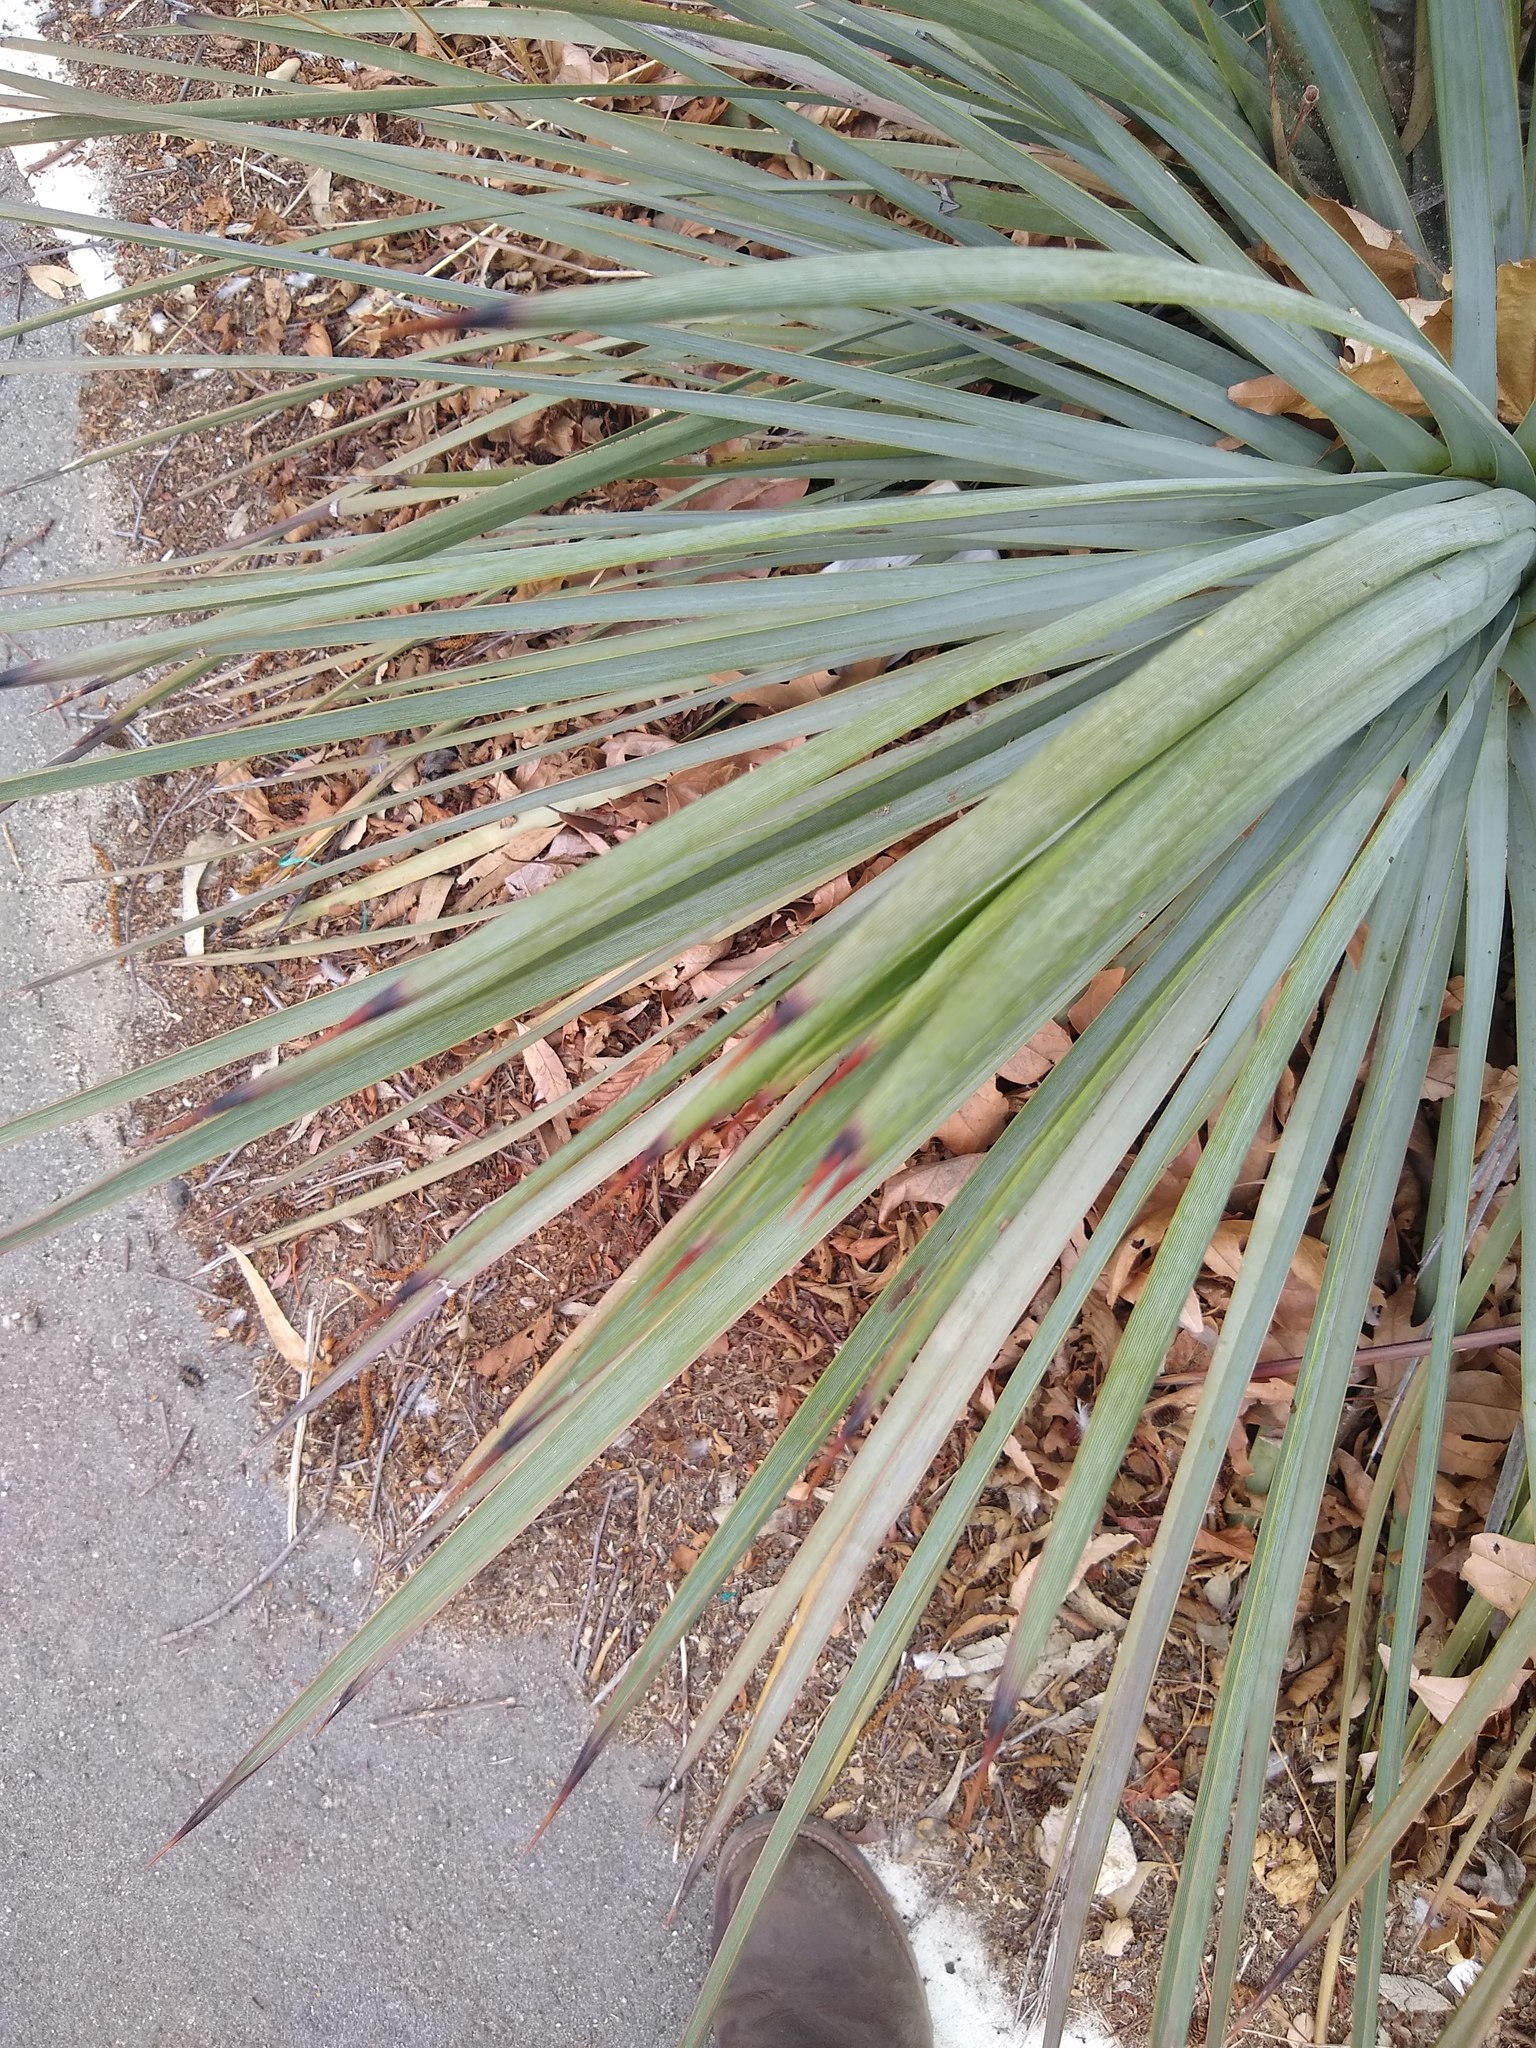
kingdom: Plantae
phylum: Tracheophyta
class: Liliopsida
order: Asparagales
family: Asparagaceae
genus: Hesperoyucca
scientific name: Hesperoyucca whipplei
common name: Our lord's-candle
